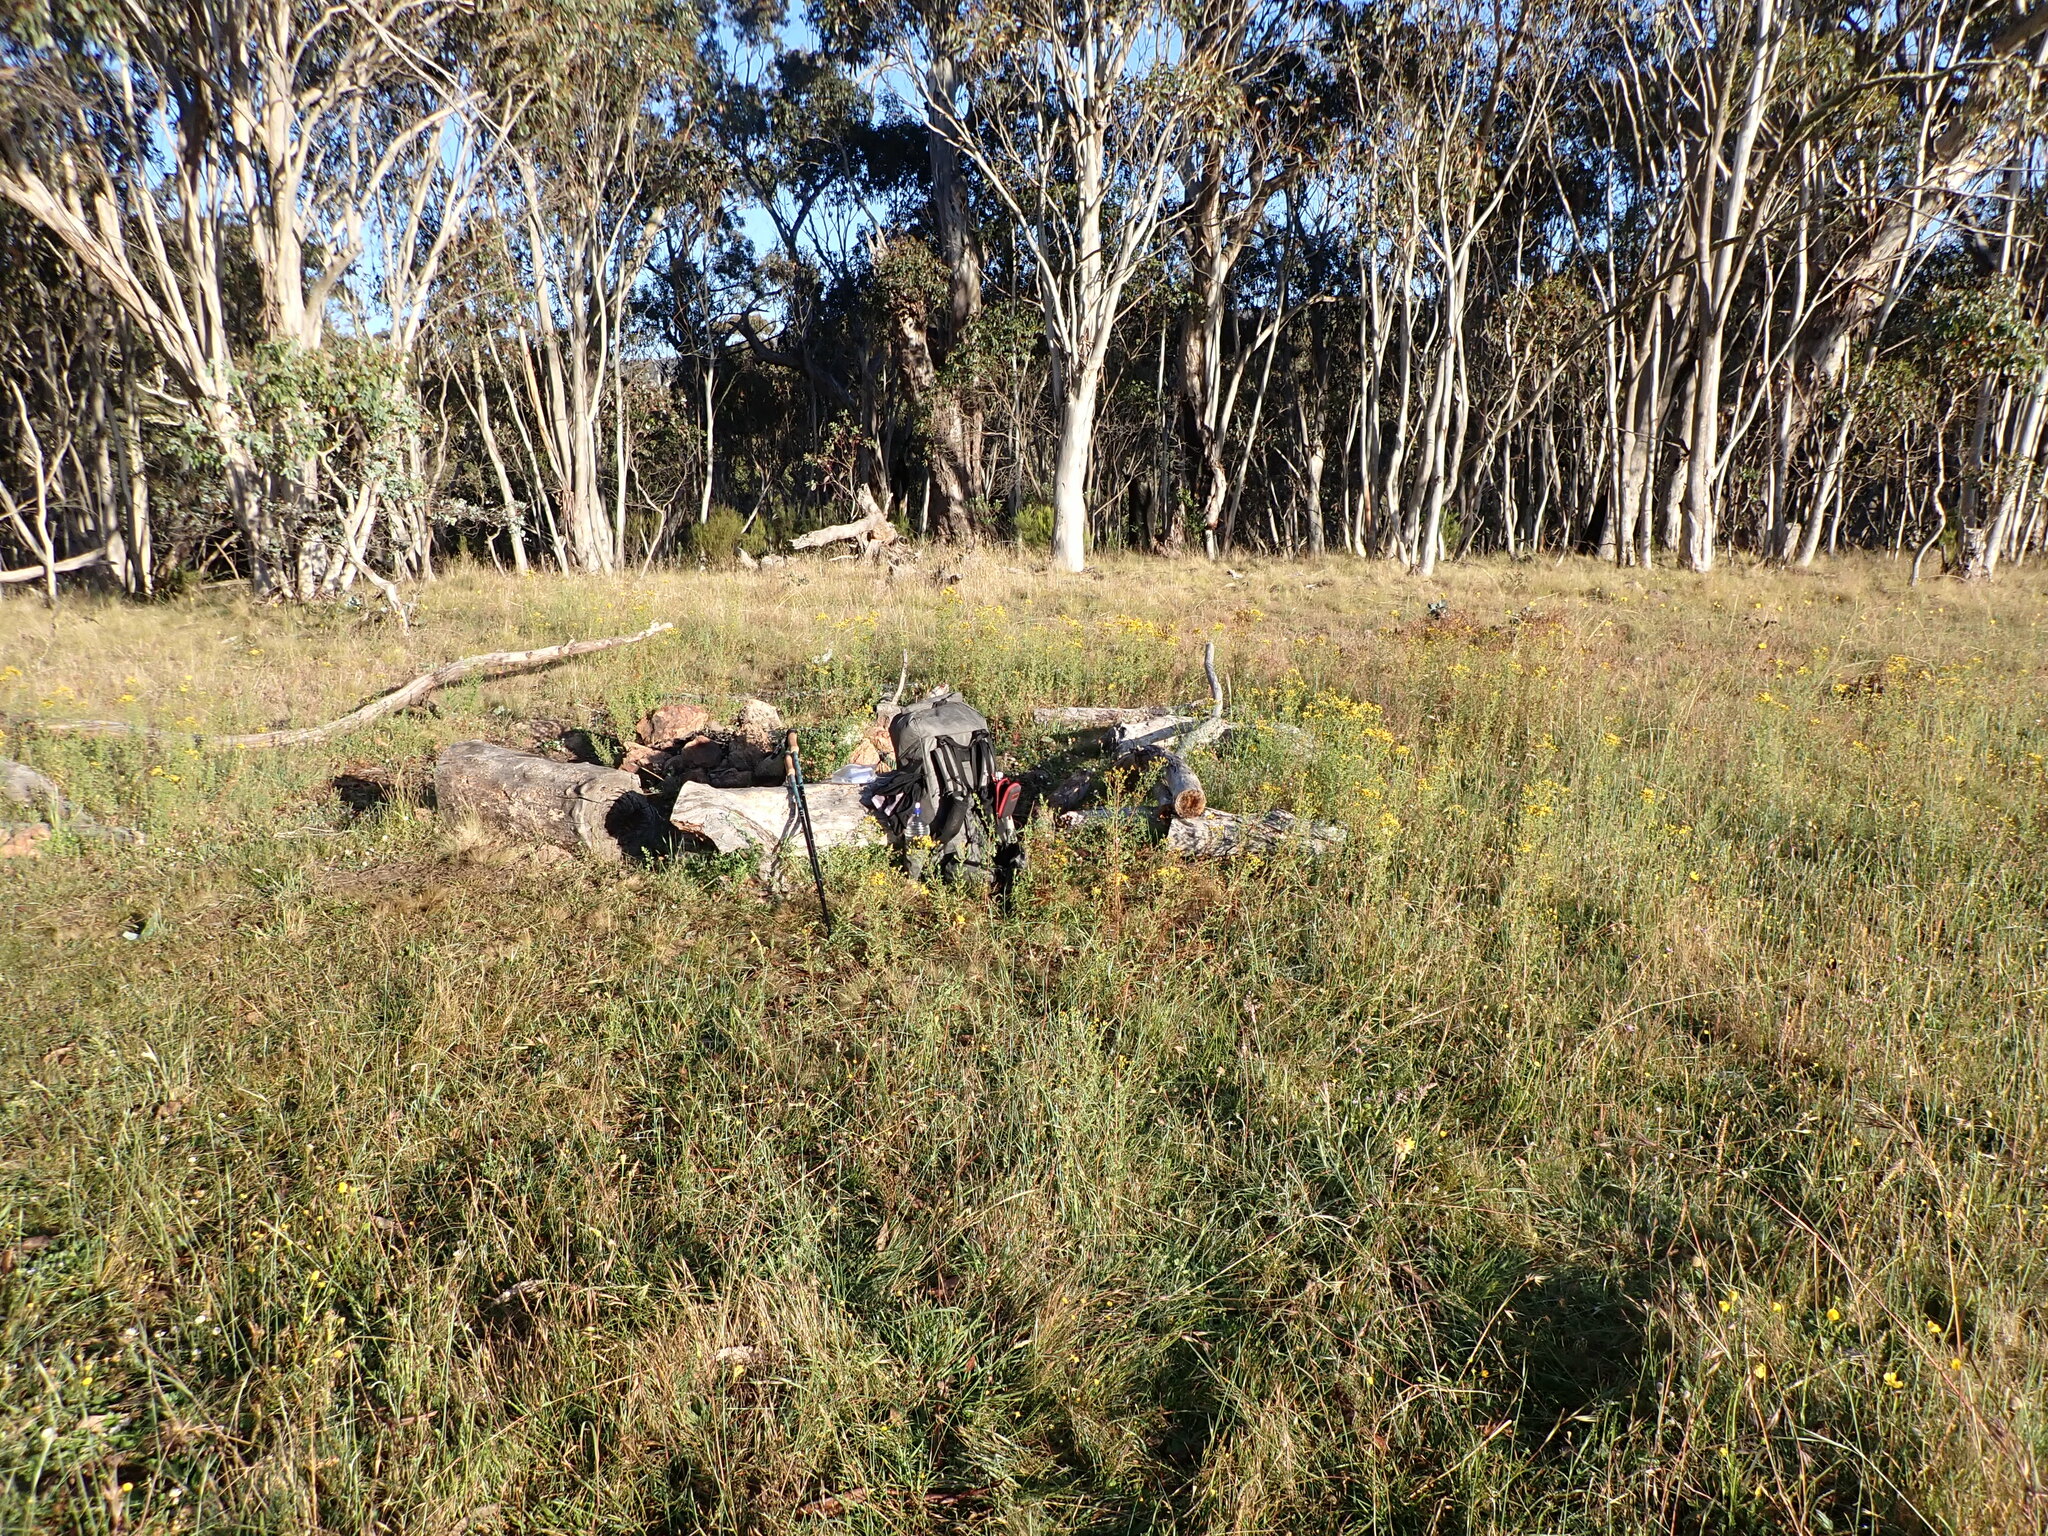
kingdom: Plantae
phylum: Tracheophyta
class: Magnoliopsida
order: Malpighiales
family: Hypericaceae
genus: Hypericum
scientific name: Hypericum perforatum
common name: Common st. johnswort
